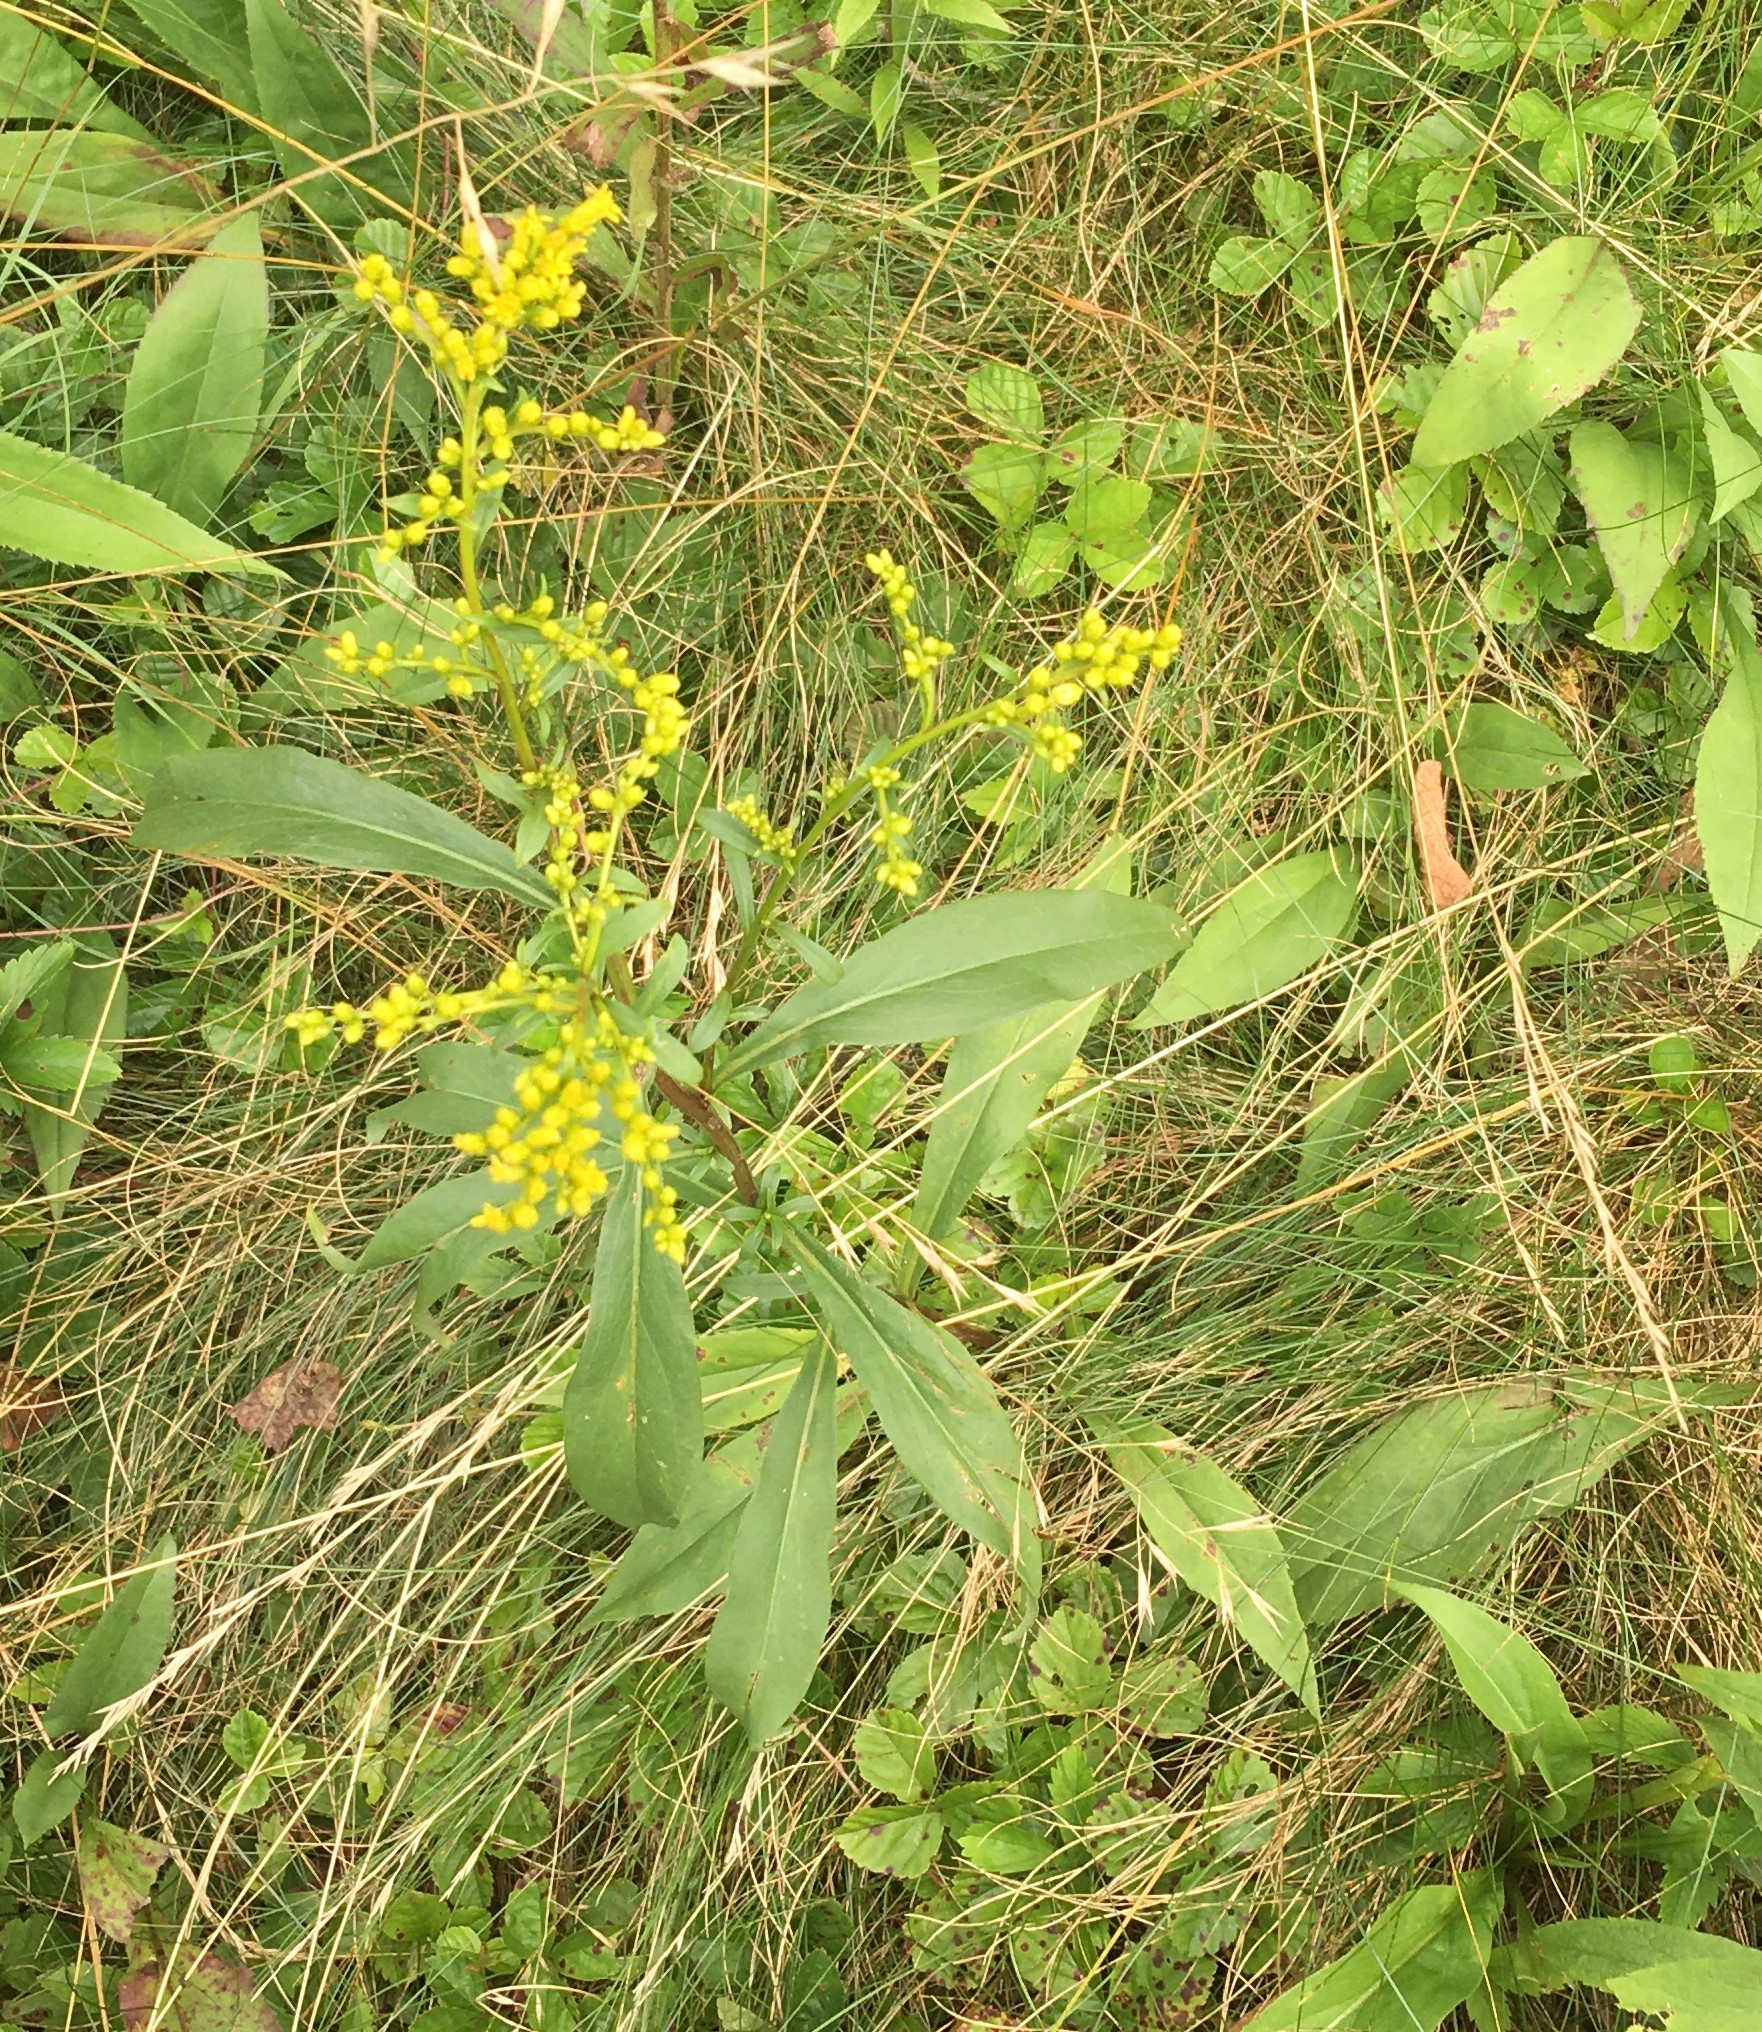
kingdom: Plantae
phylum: Tracheophyta
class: Magnoliopsida
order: Asterales
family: Asteraceae
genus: Solidago
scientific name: Solidago juncea
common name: Early goldenrod
